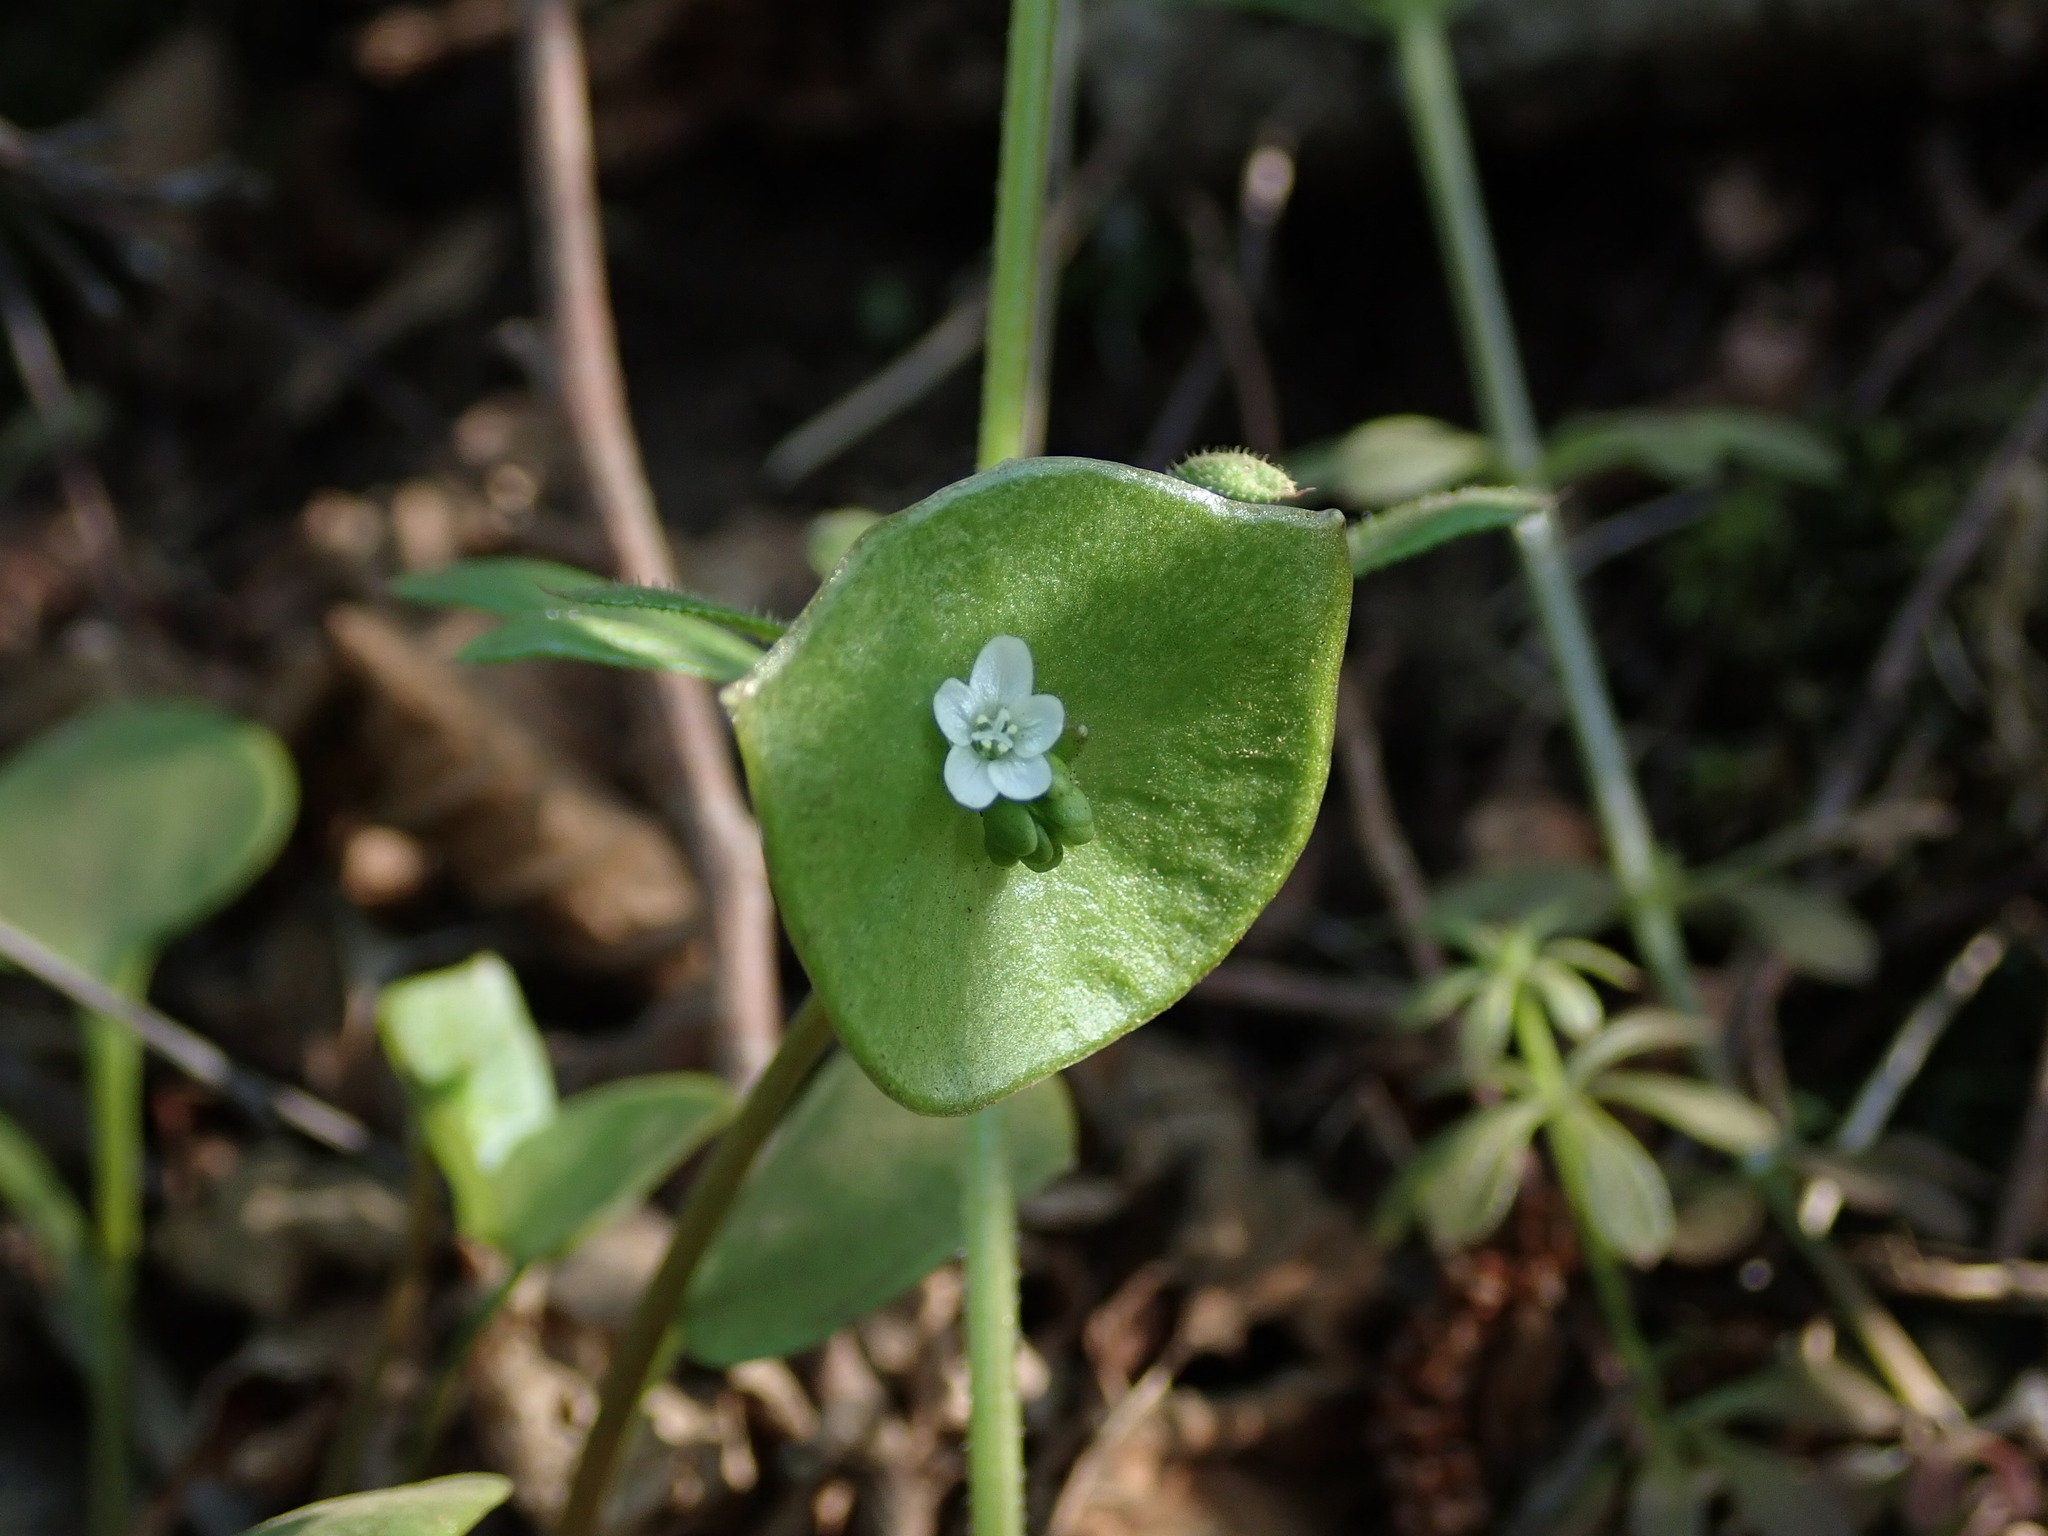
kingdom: Plantae
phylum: Tracheophyta
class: Magnoliopsida
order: Caryophyllales
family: Montiaceae
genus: Claytonia
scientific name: Claytonia perfoliata
